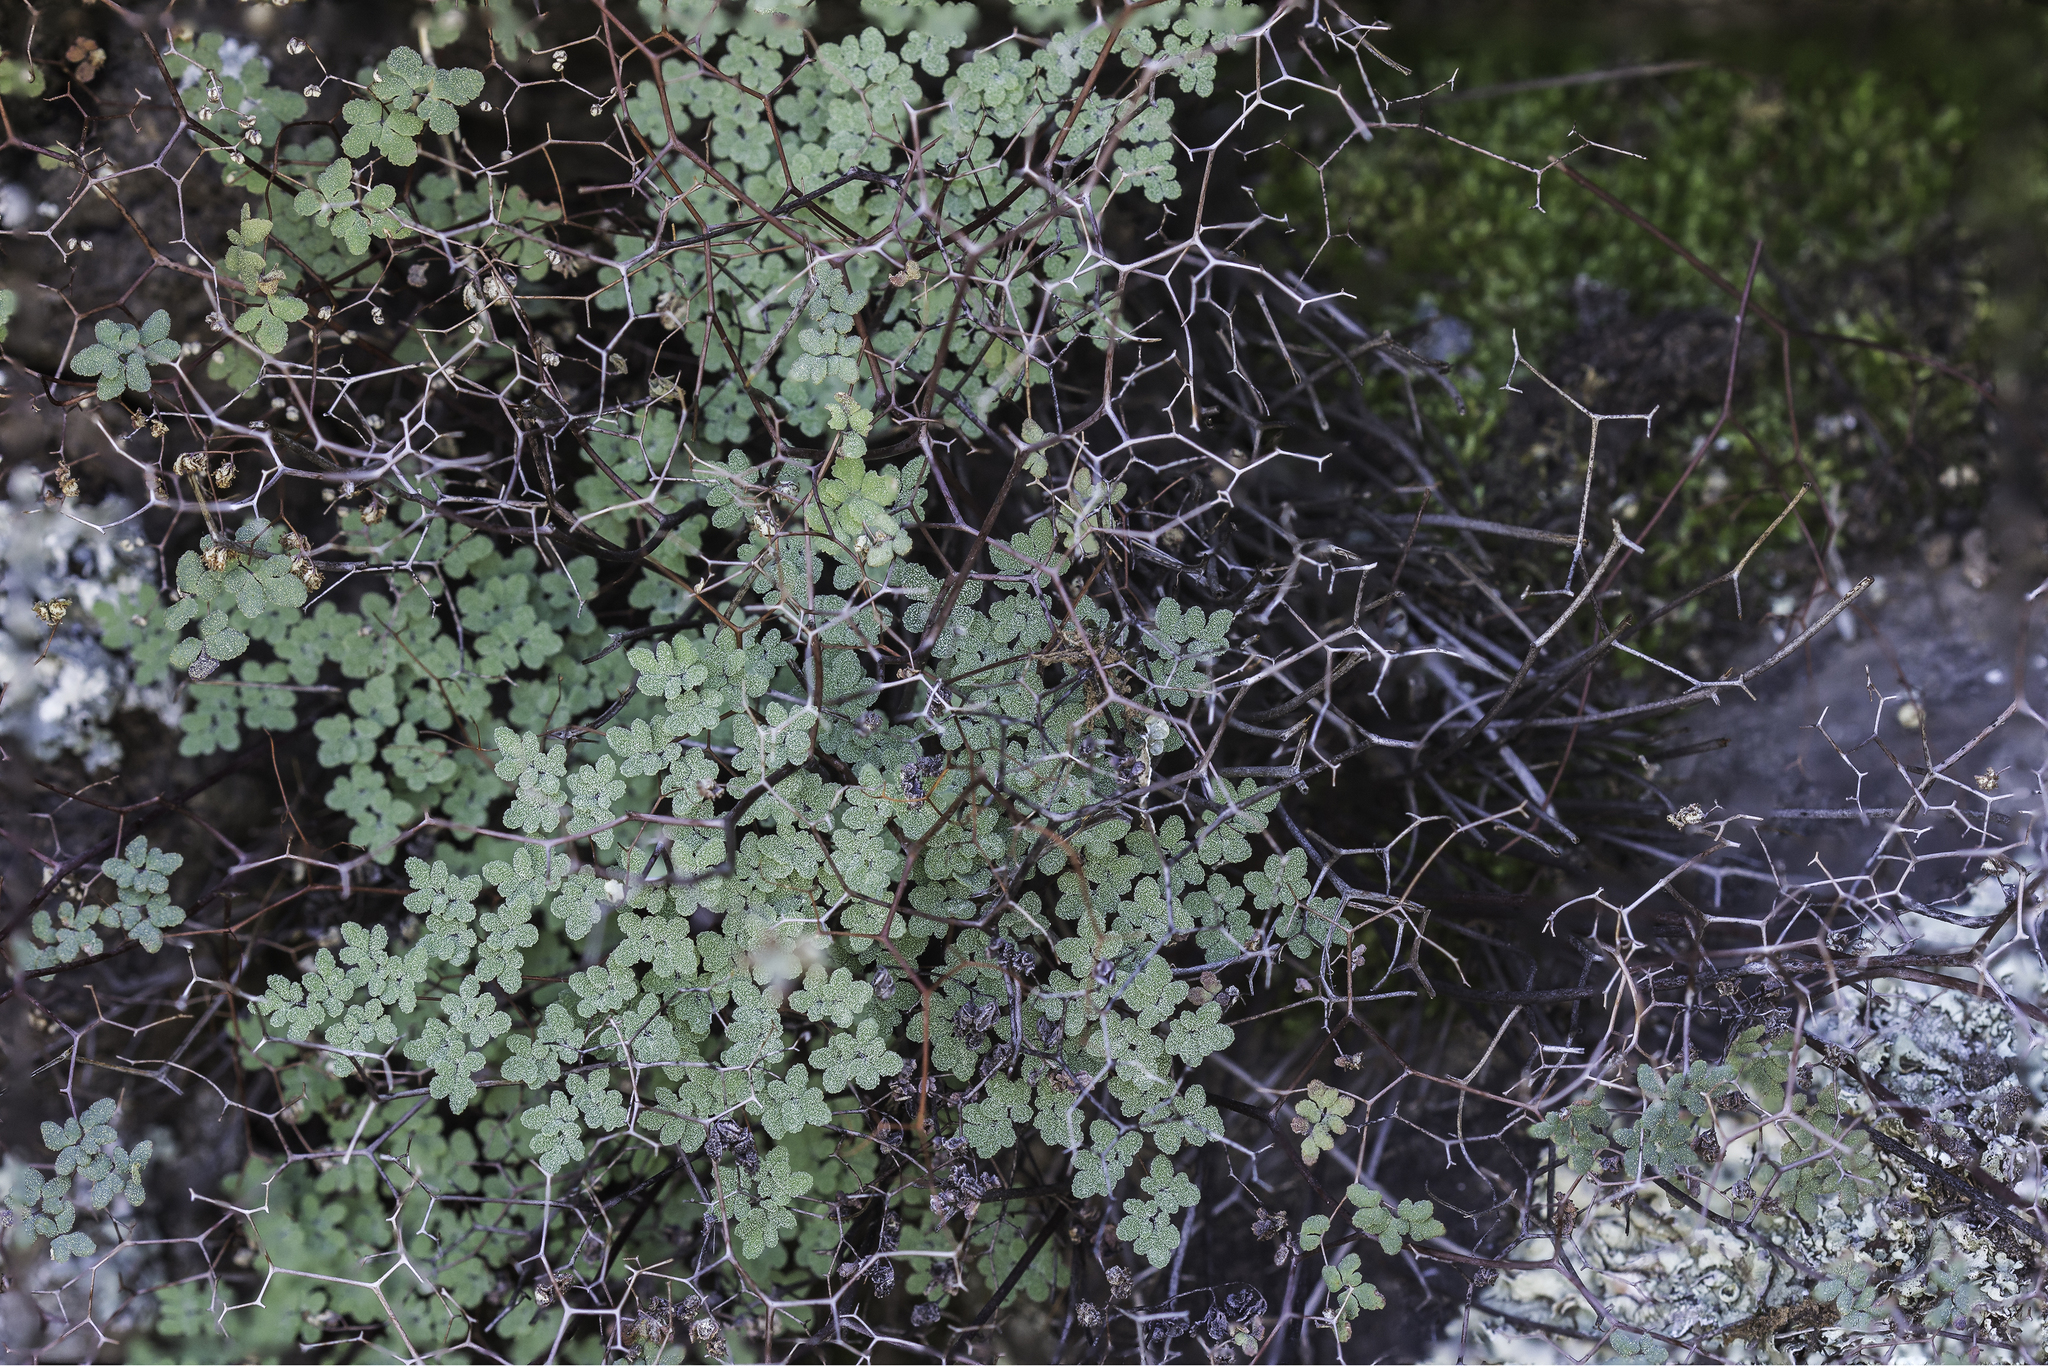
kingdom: Plantae
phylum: Tracheophyta
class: Polypodiopsida
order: Polypodiales
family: Pteridaceae
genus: Argyrochosma
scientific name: Argyrochosma fendleri
